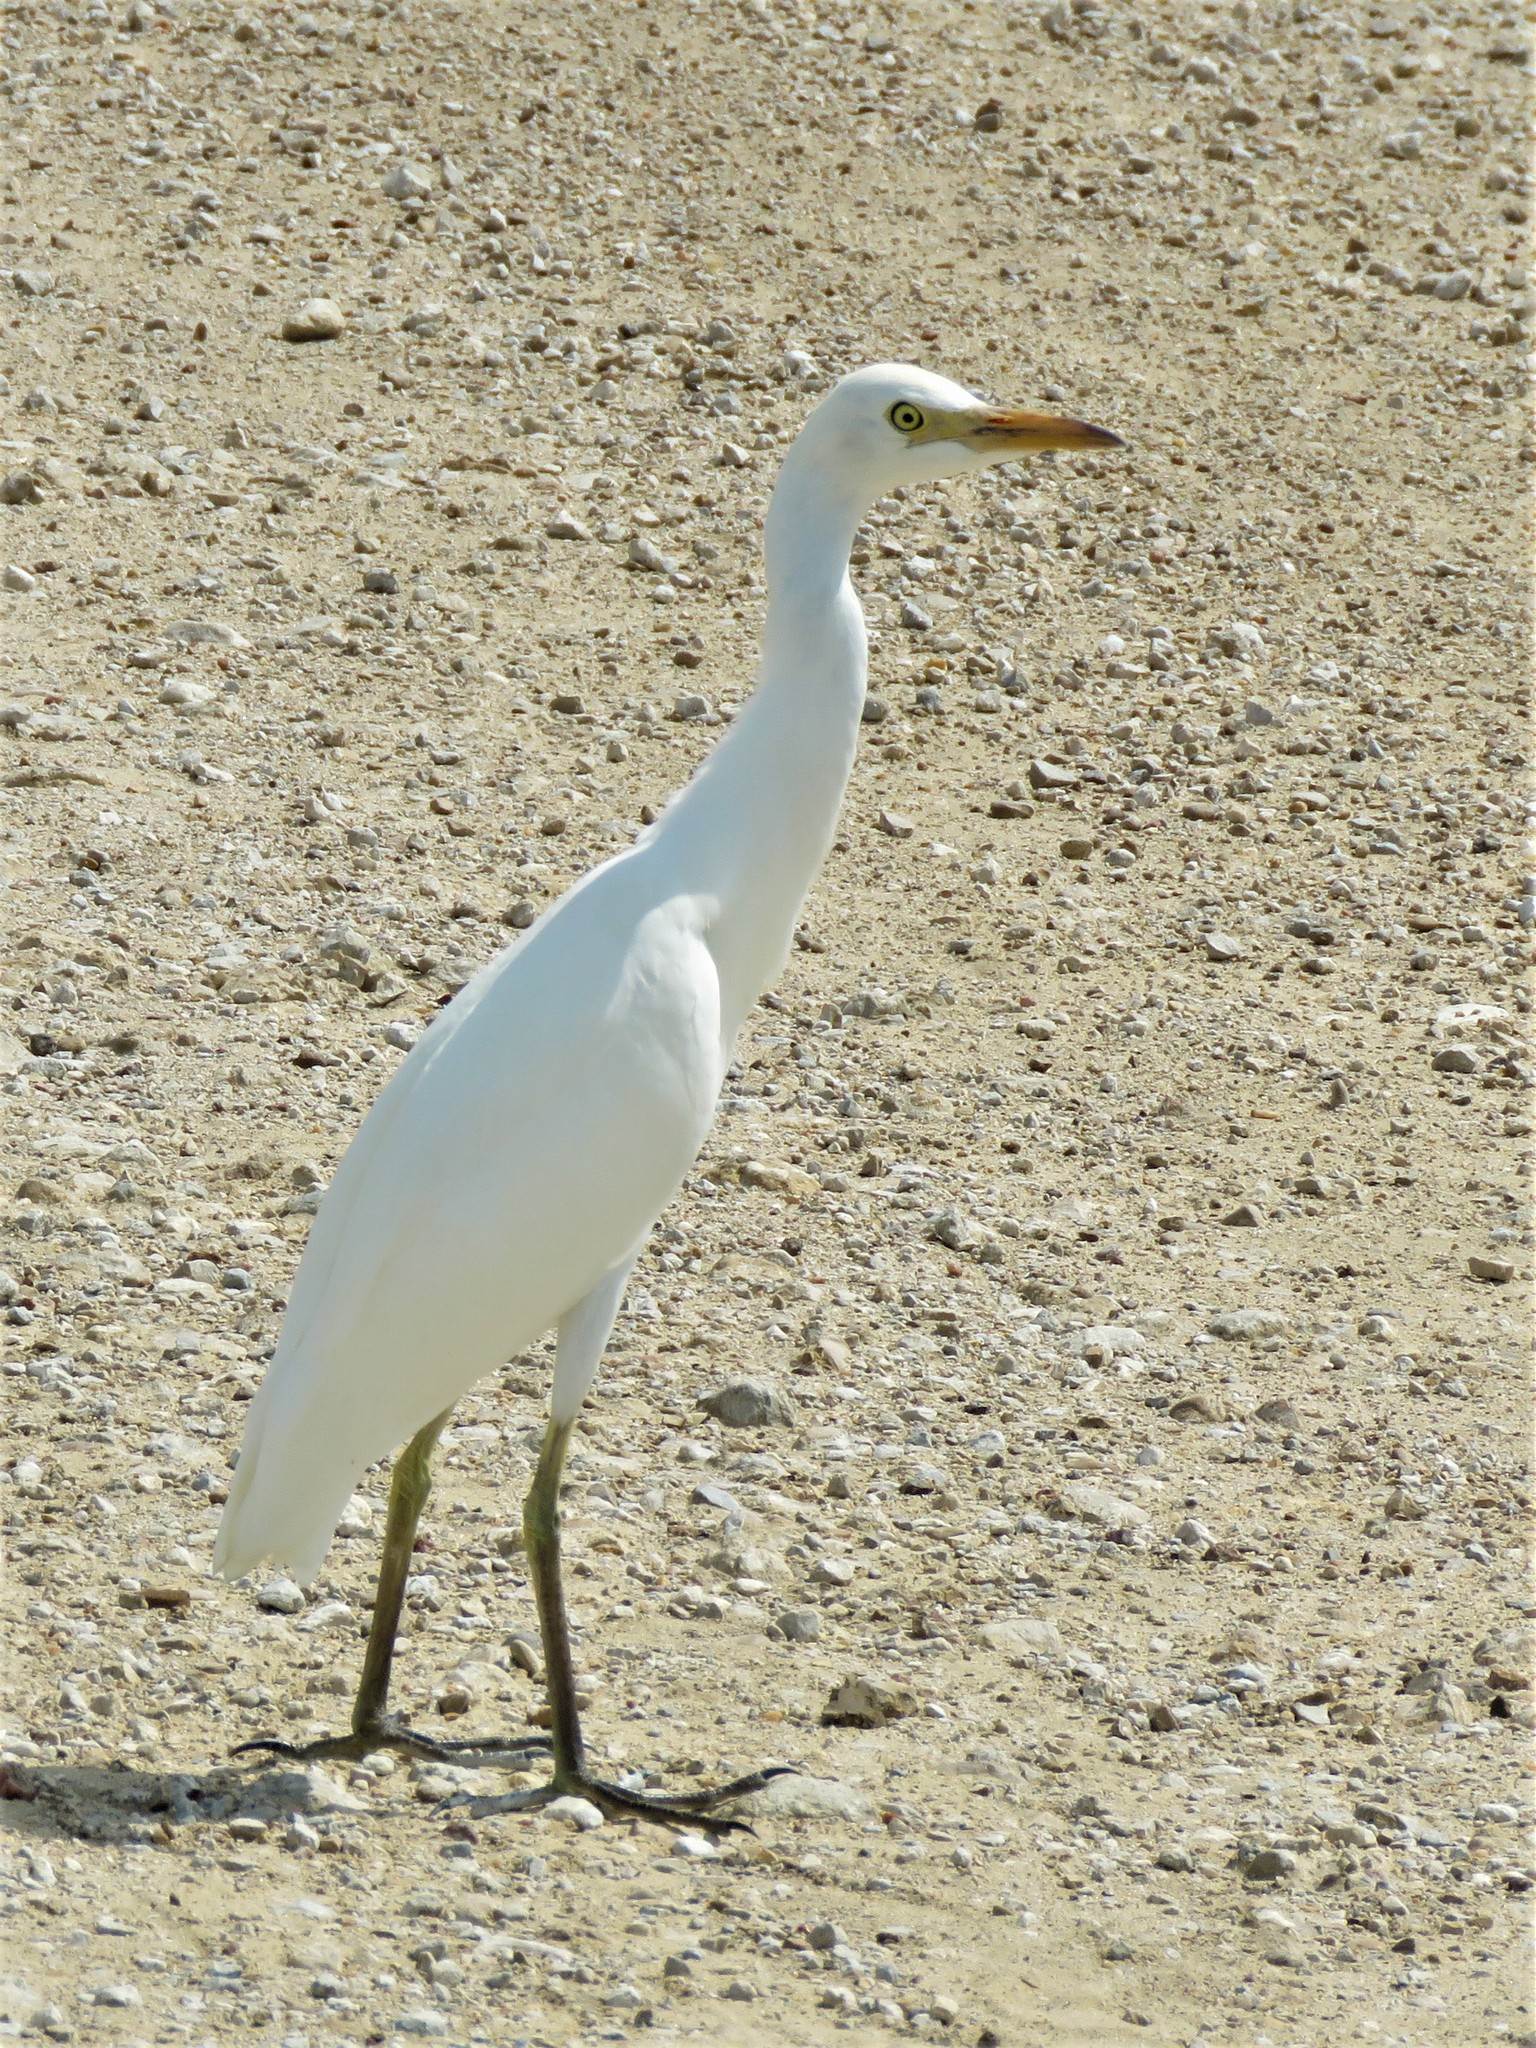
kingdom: Animalia
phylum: Chordata
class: Aves
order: Pelecaniformes
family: Ardeidae
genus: Bubulcus
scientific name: Bubulcus ibis
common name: Cattle egret
